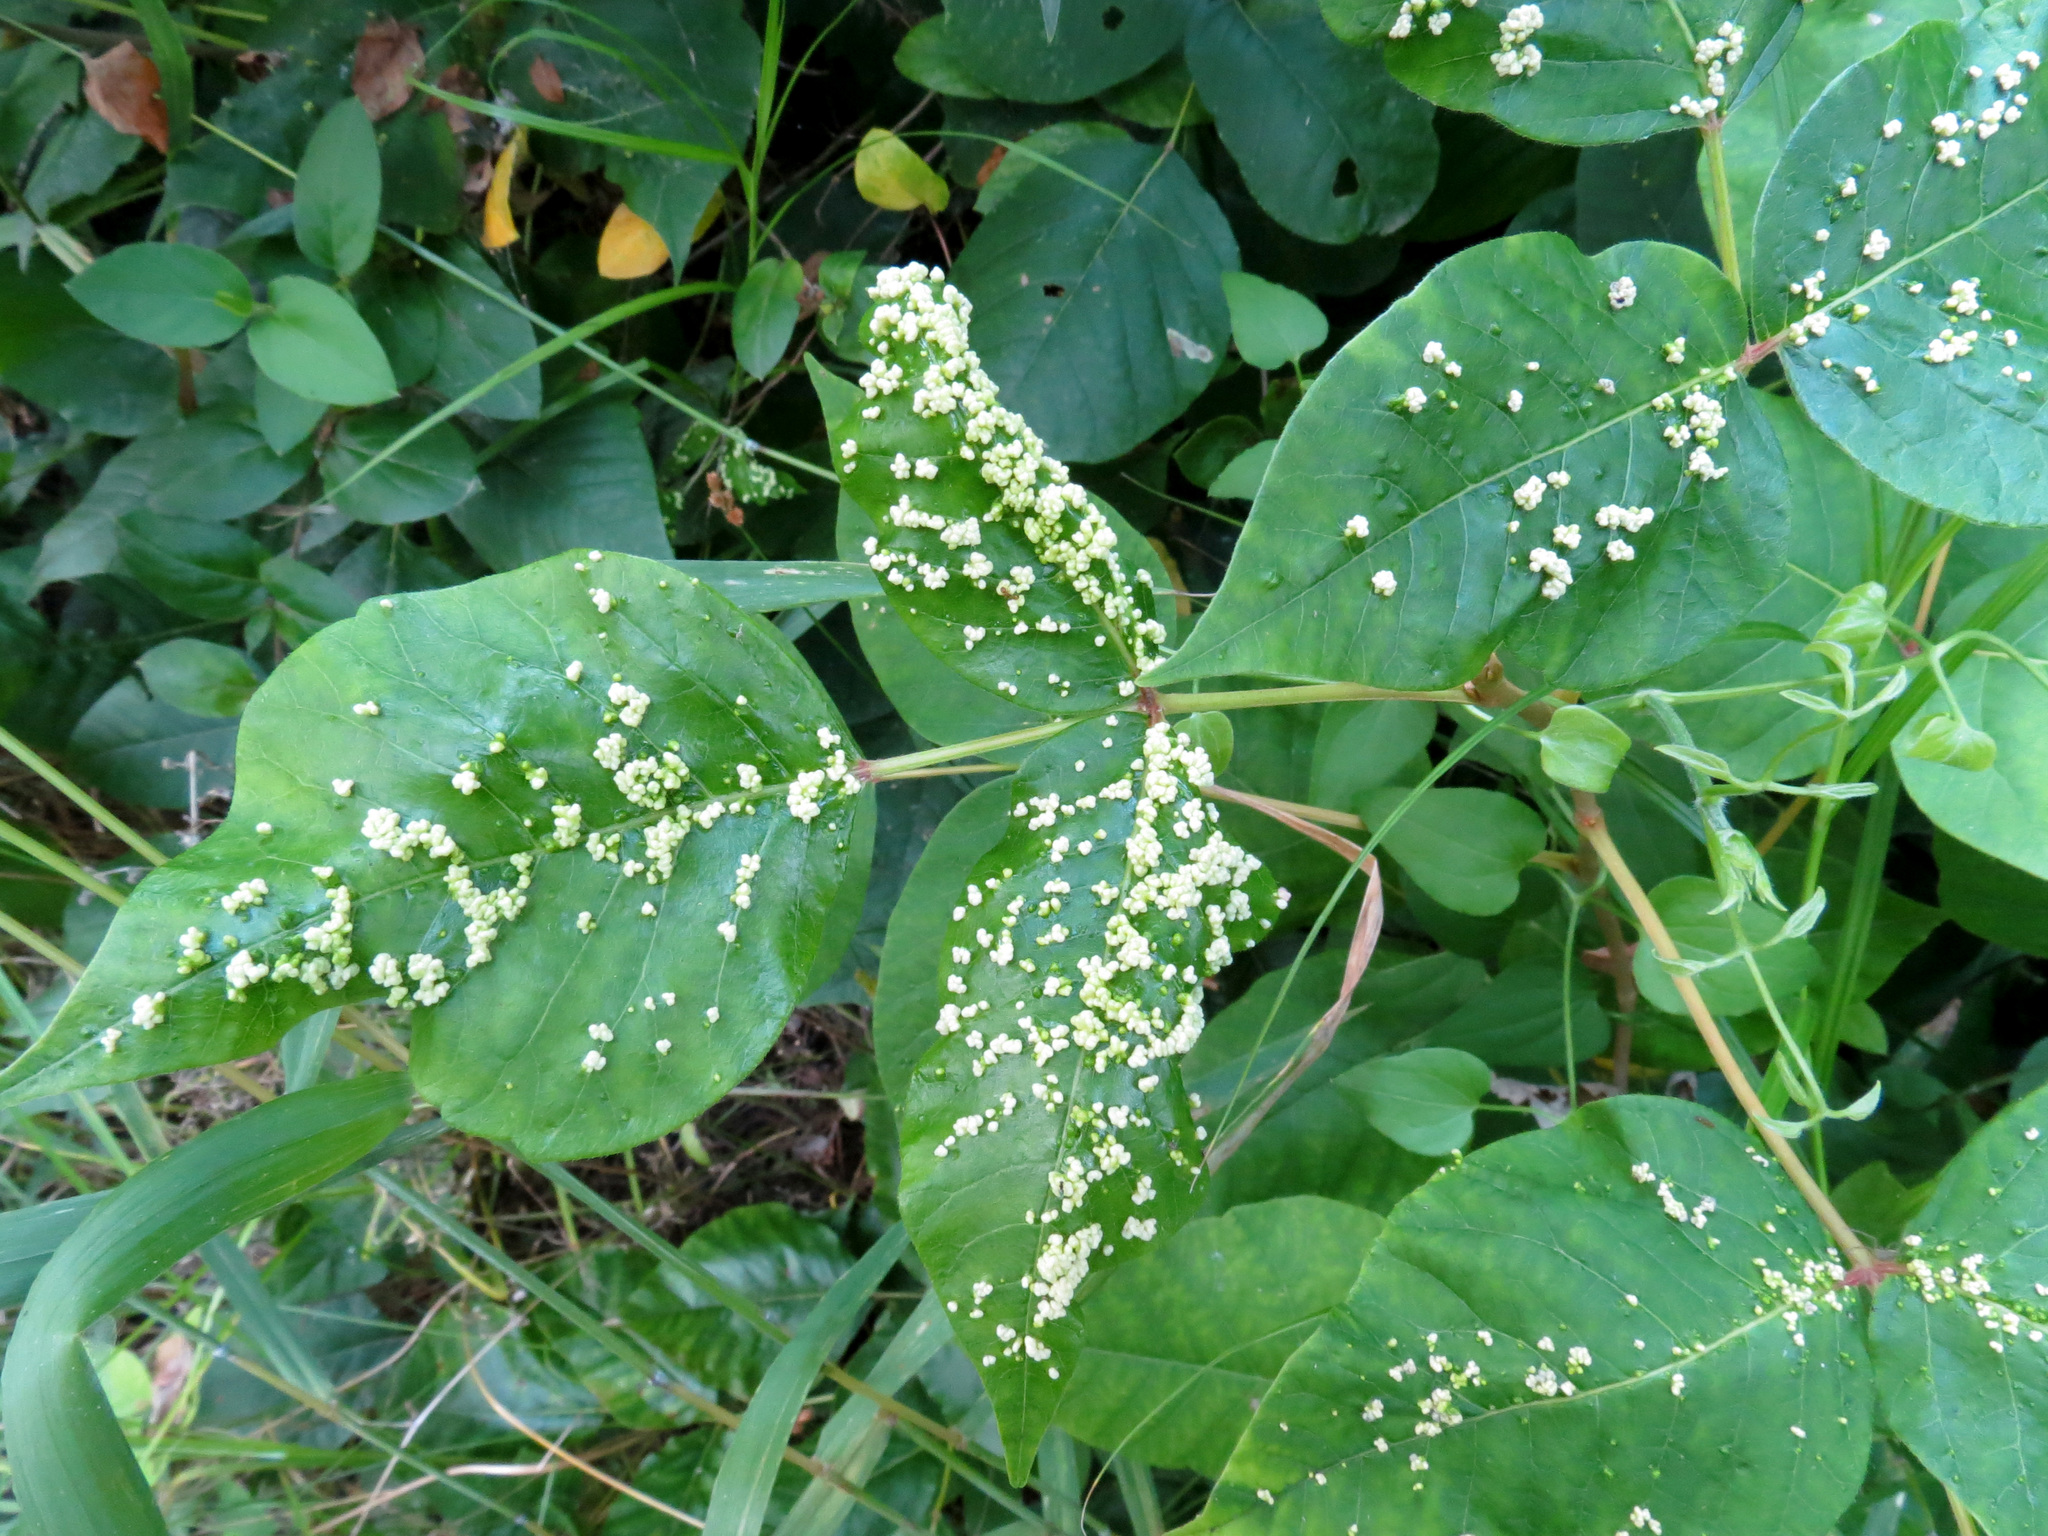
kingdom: Animalia
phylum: Arthropoda
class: Arachnida
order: Trombidiformes
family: Eriophyidae
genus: Aculops
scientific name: Aculops
